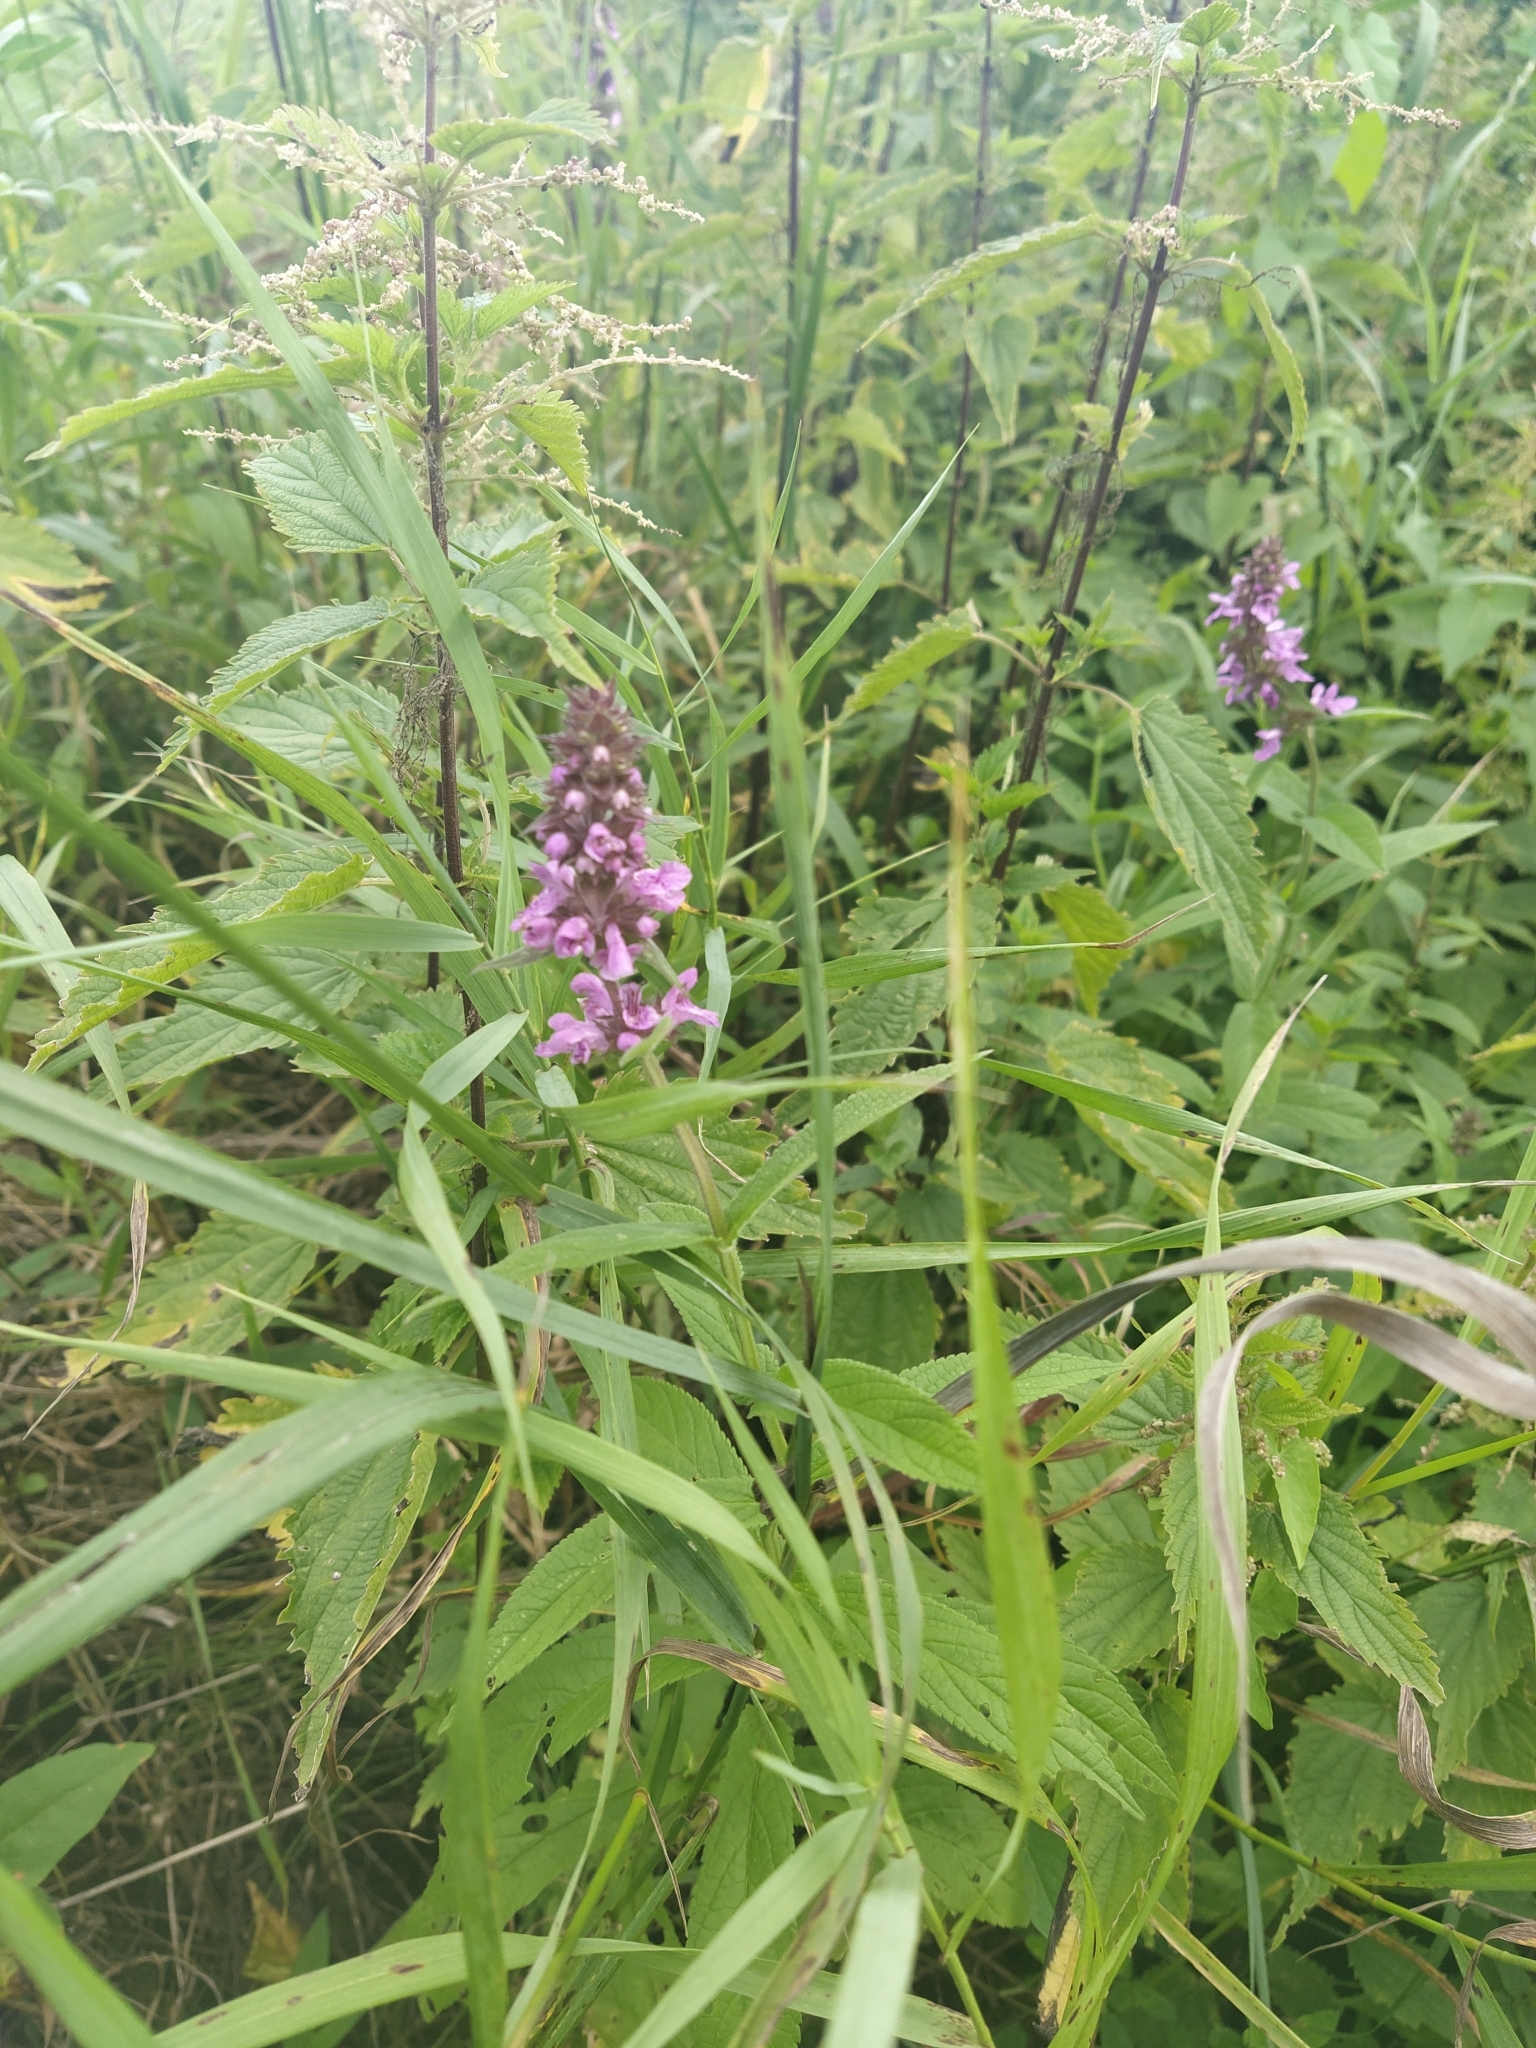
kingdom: Plantae
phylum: Tracheophyta
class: Magnoliopsida
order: Lamiales
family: Lamiaceae
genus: Stachys
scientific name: Stachys palustris
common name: Marsh woundwort
